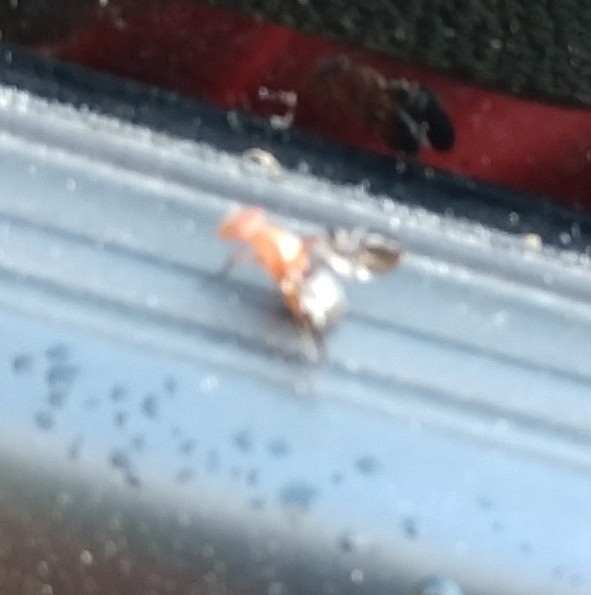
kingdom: Animalia
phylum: Arthropoda
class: Insecta
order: Diptera
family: Ulidiidae
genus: Delphinia
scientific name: Delphinia picta
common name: Common picture-winged fly
